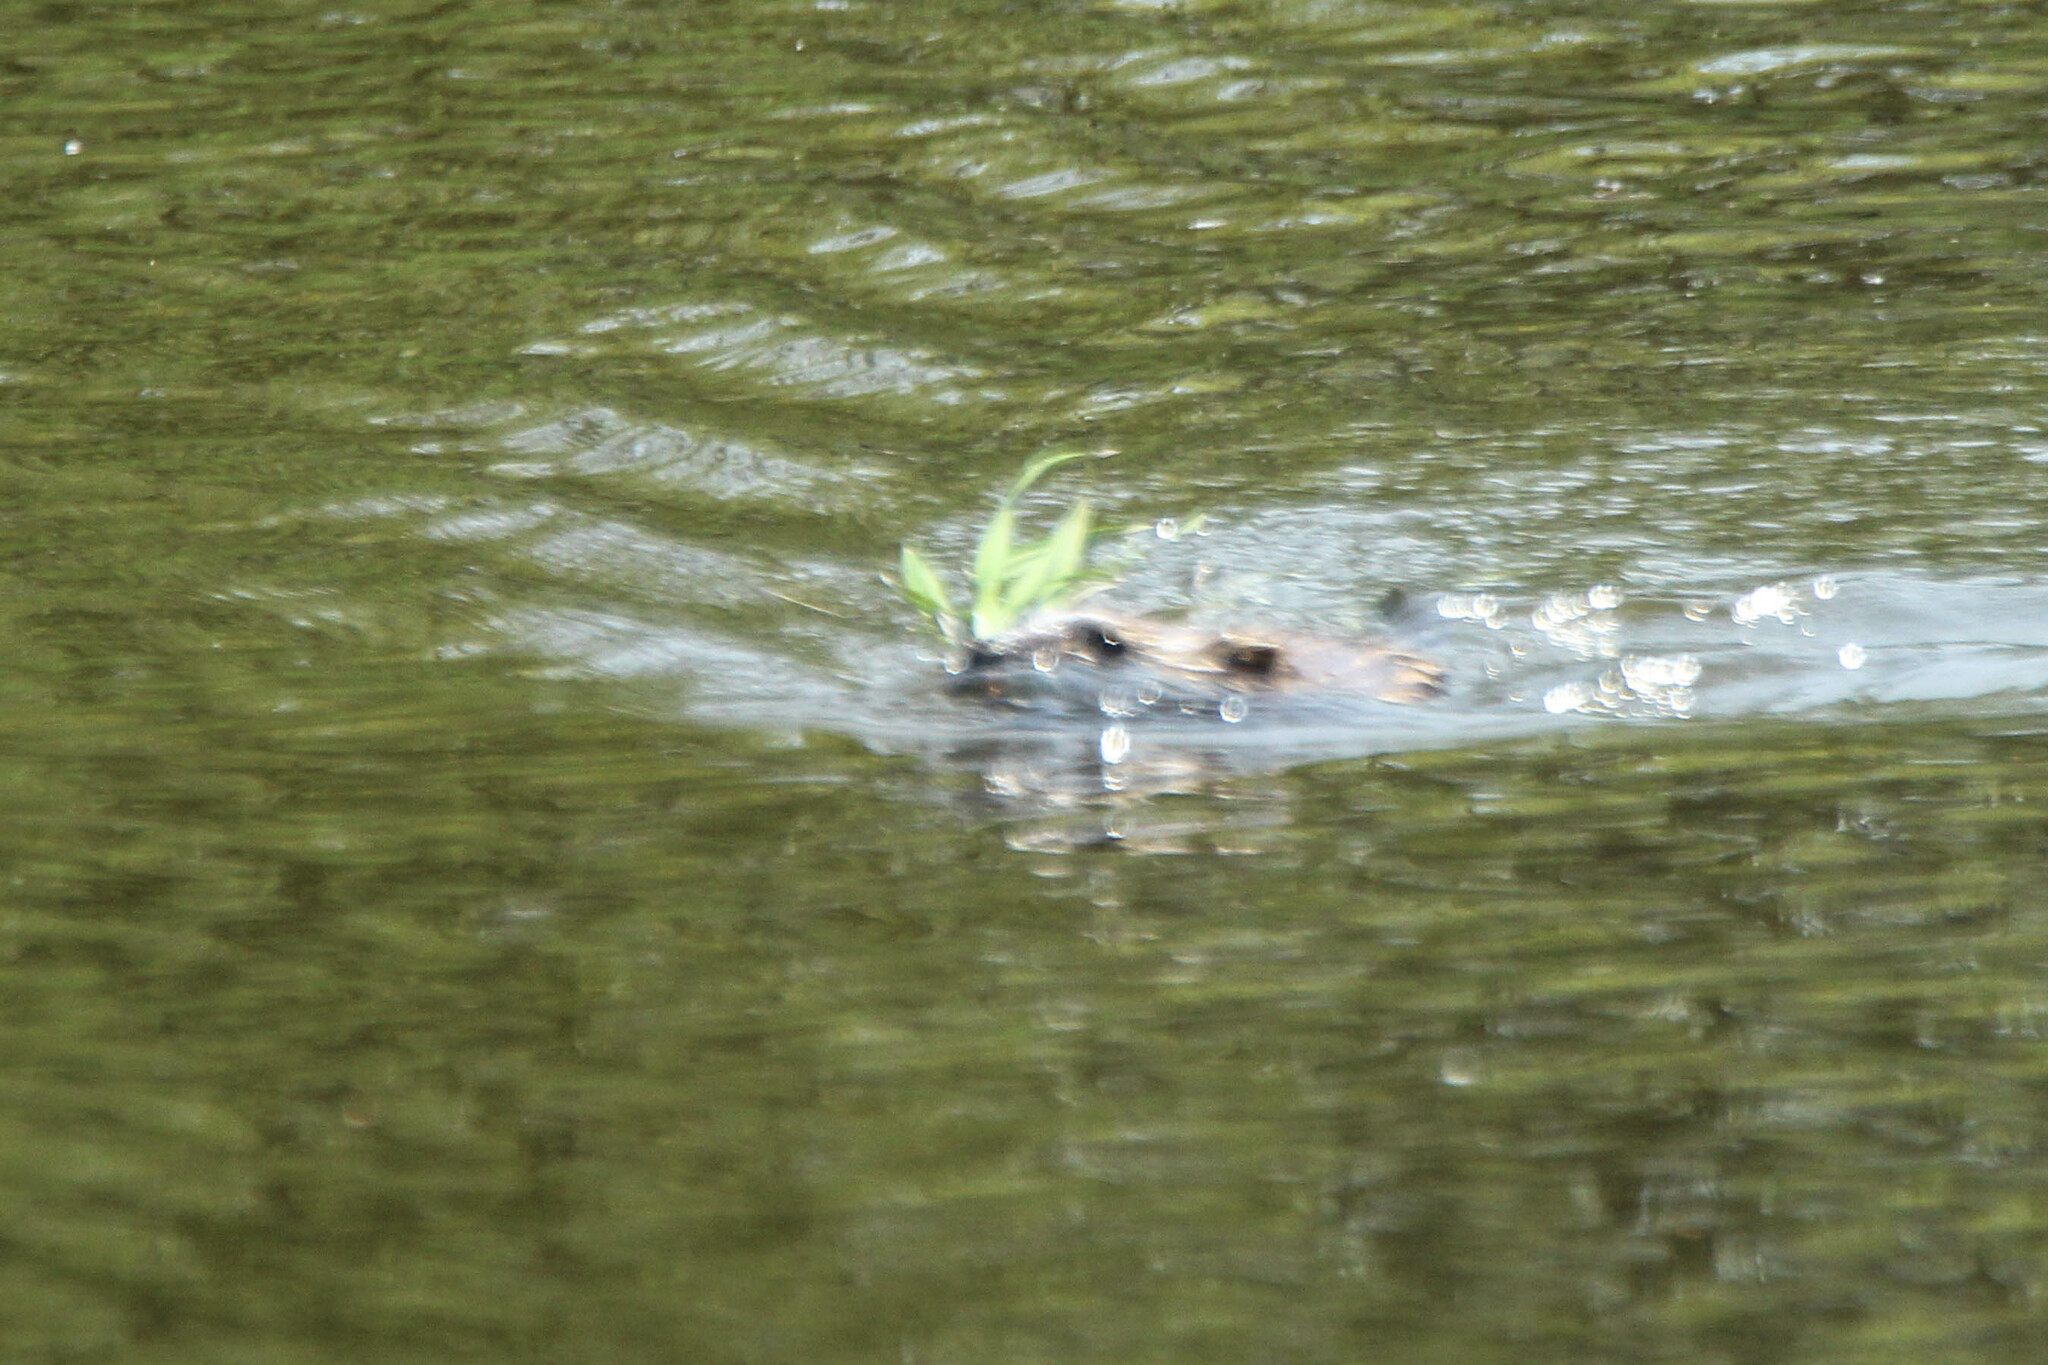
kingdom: Animalia
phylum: Chordata
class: Mammalia
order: Rodentia
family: Cricetidae
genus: Ondatra
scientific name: Ondatra zibethicus
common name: Muskrat
